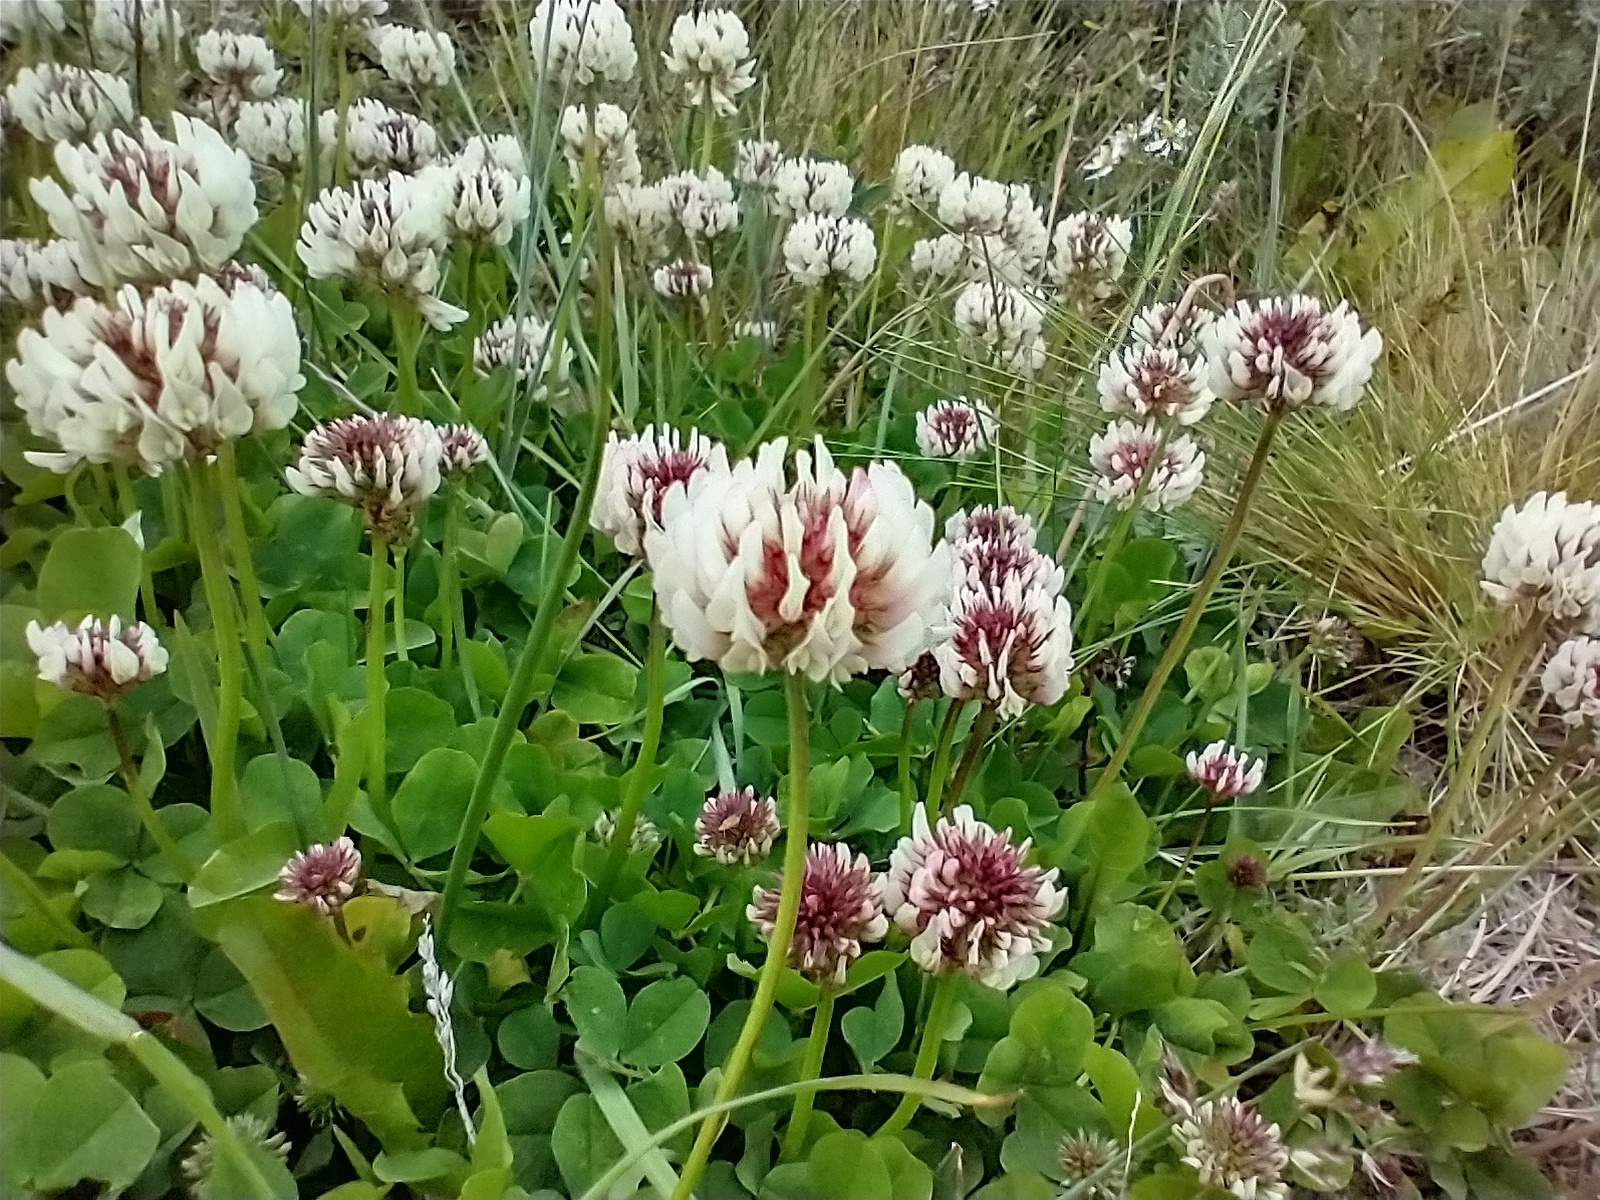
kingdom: Plantae
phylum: Tracheophyta
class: Magnoliopsida
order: Fabales
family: Fabaceae
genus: Trifolium
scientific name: Trifolium repens
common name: White clover
